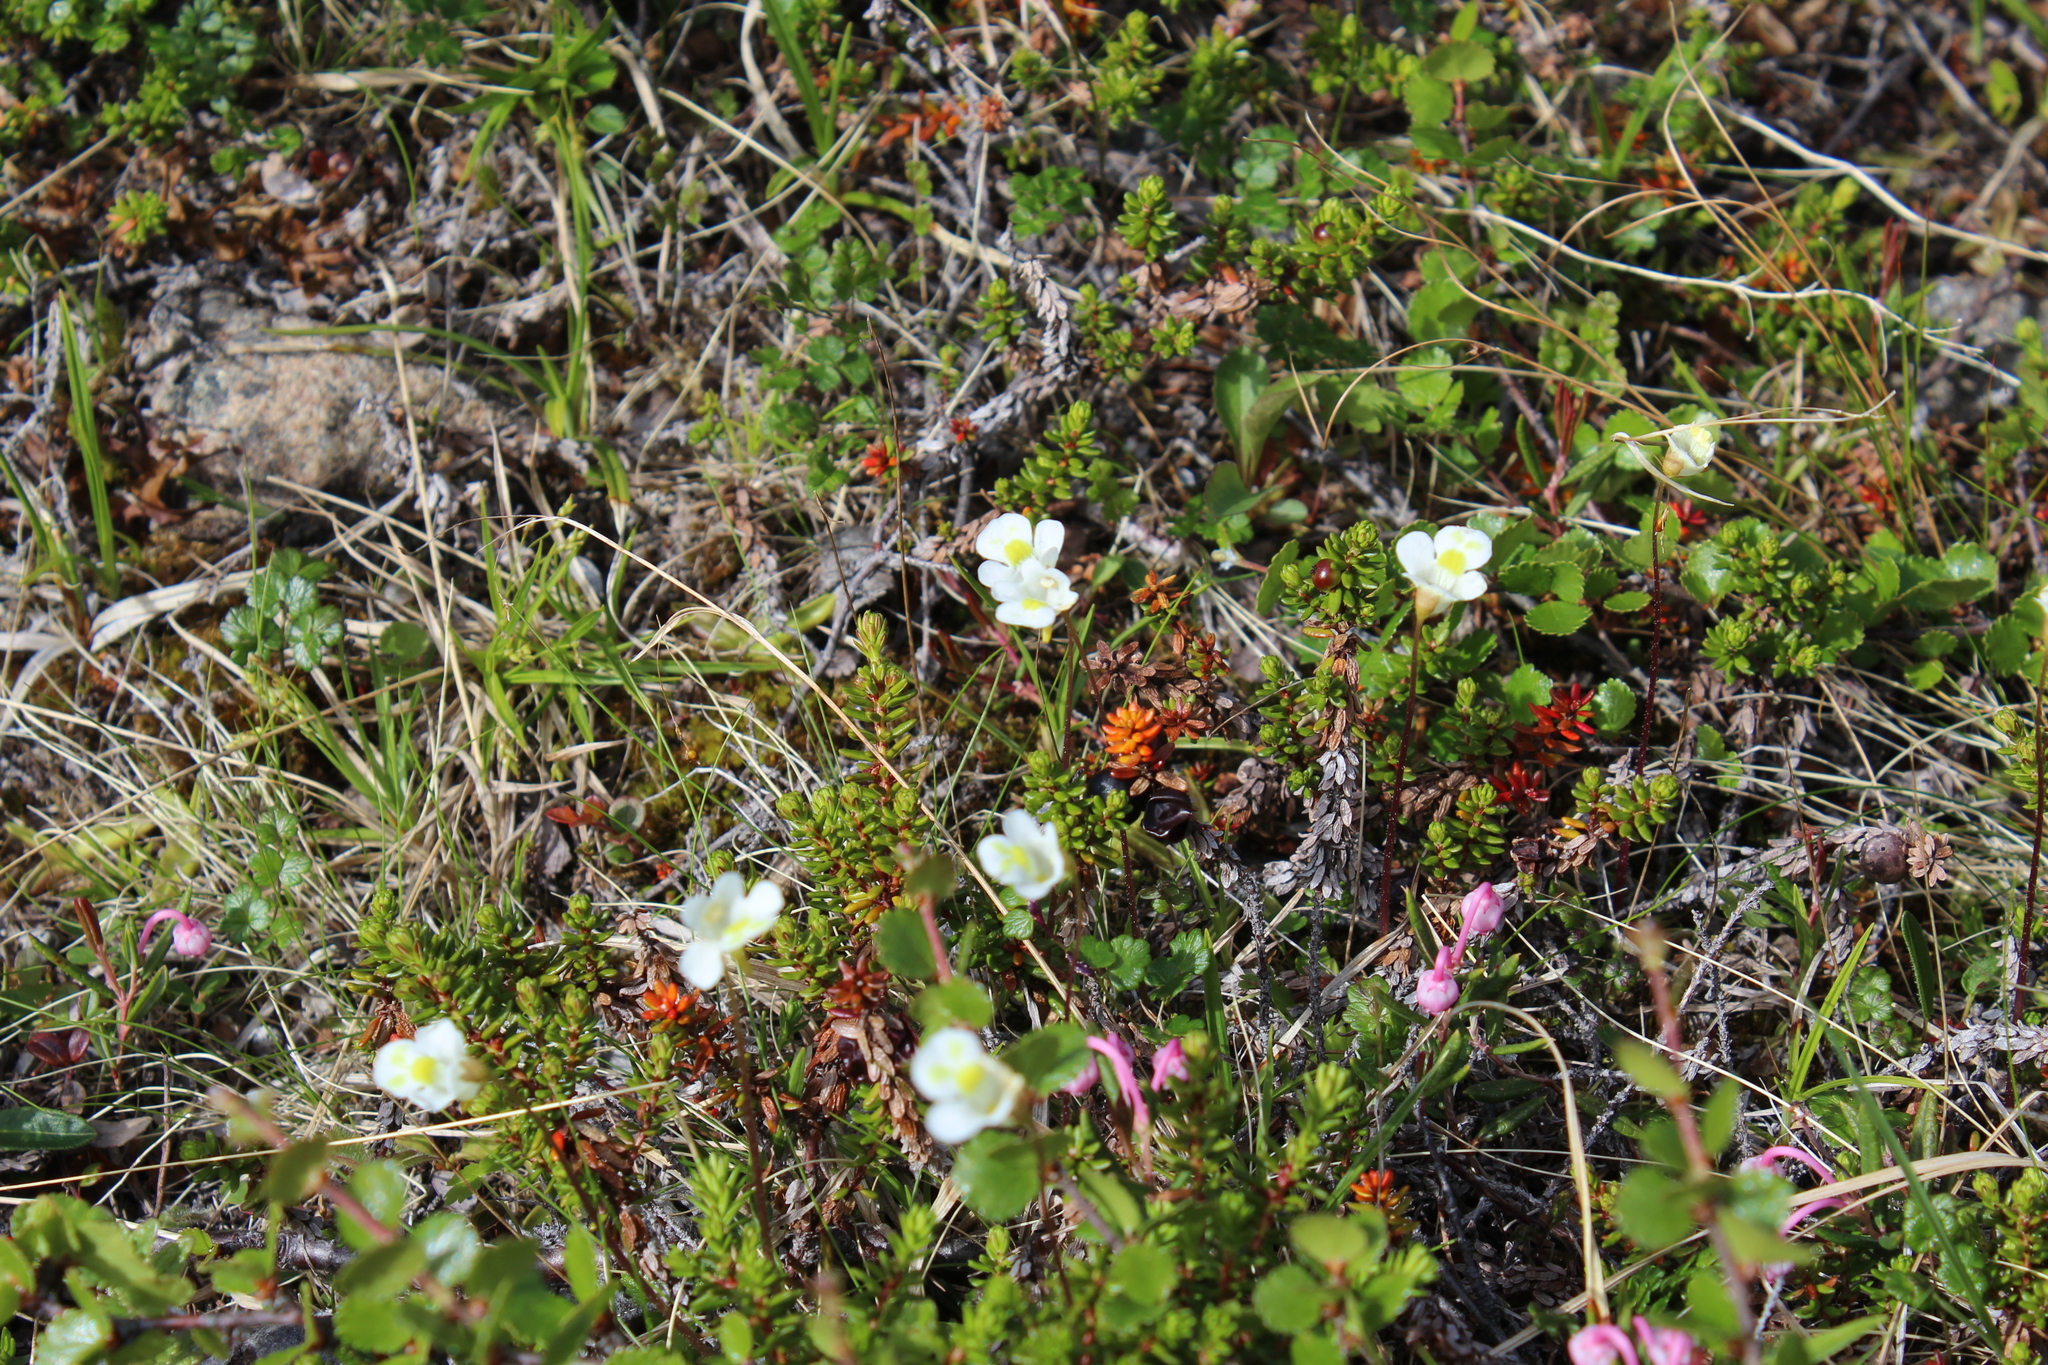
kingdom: Plantae
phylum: Tracheophyta
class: Magnoliopsida
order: Lamiales
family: Lentibulariaceae
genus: Pinguicula
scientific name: Pinguicula alpina
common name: Alpine butterwort
